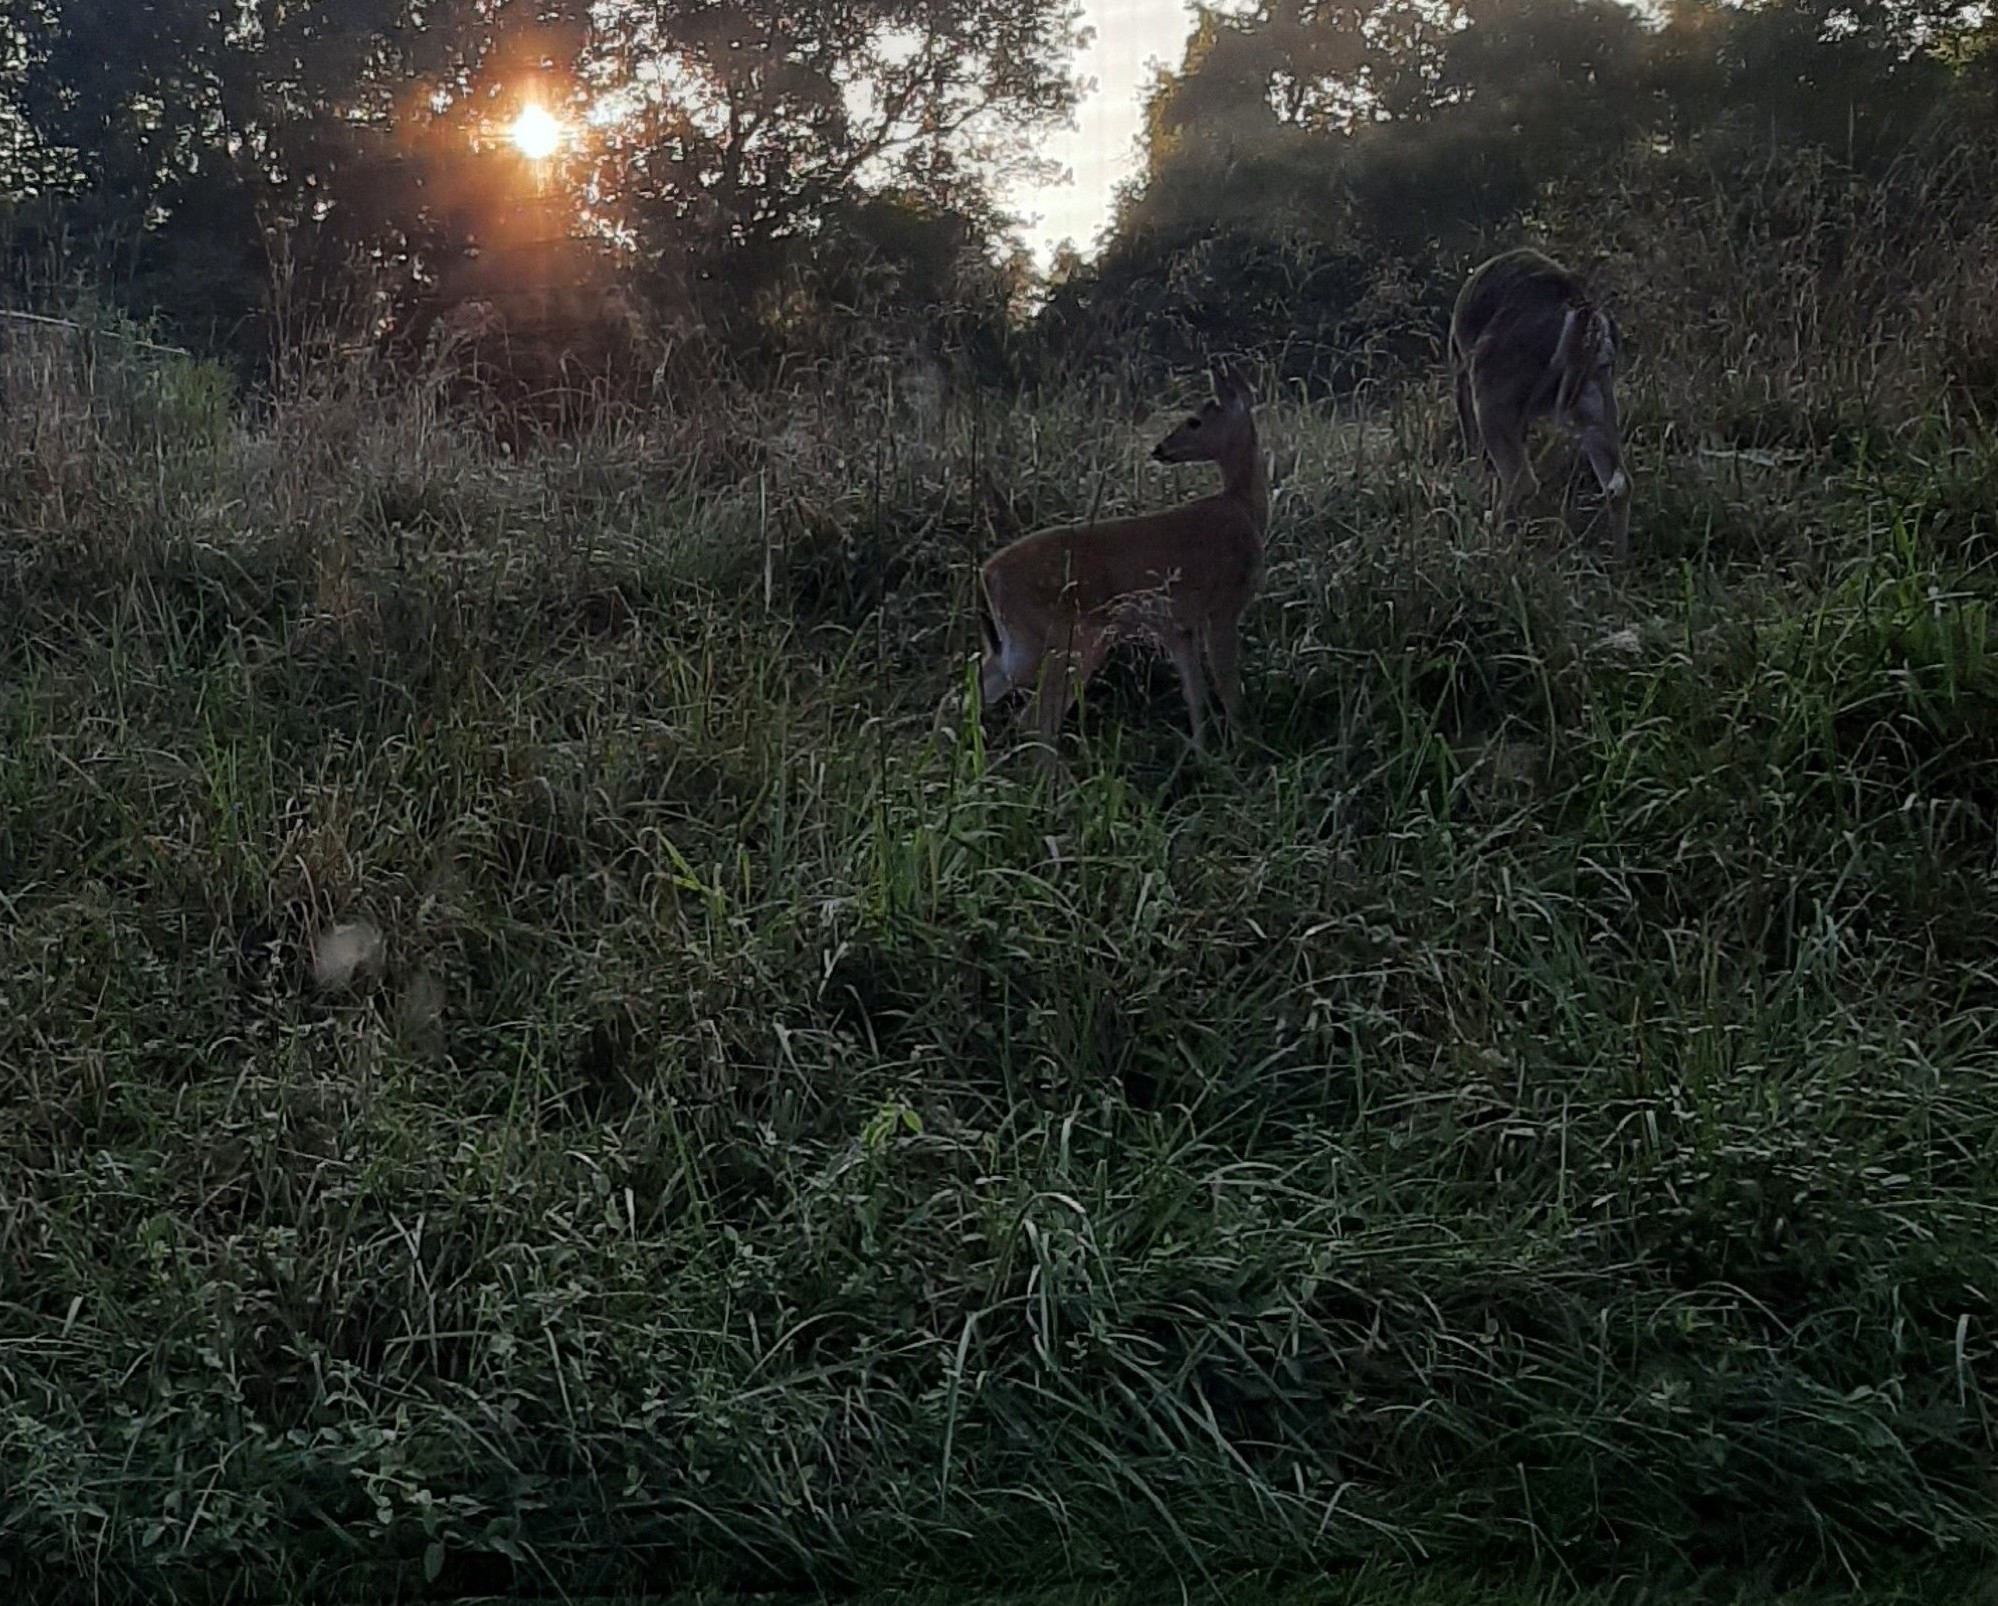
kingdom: Animalia
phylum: Chordata
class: Mammalia
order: Artiodactyla
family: Cervidae
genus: Odocoileus
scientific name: Odocoileus virginianus
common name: White-tailed deer
